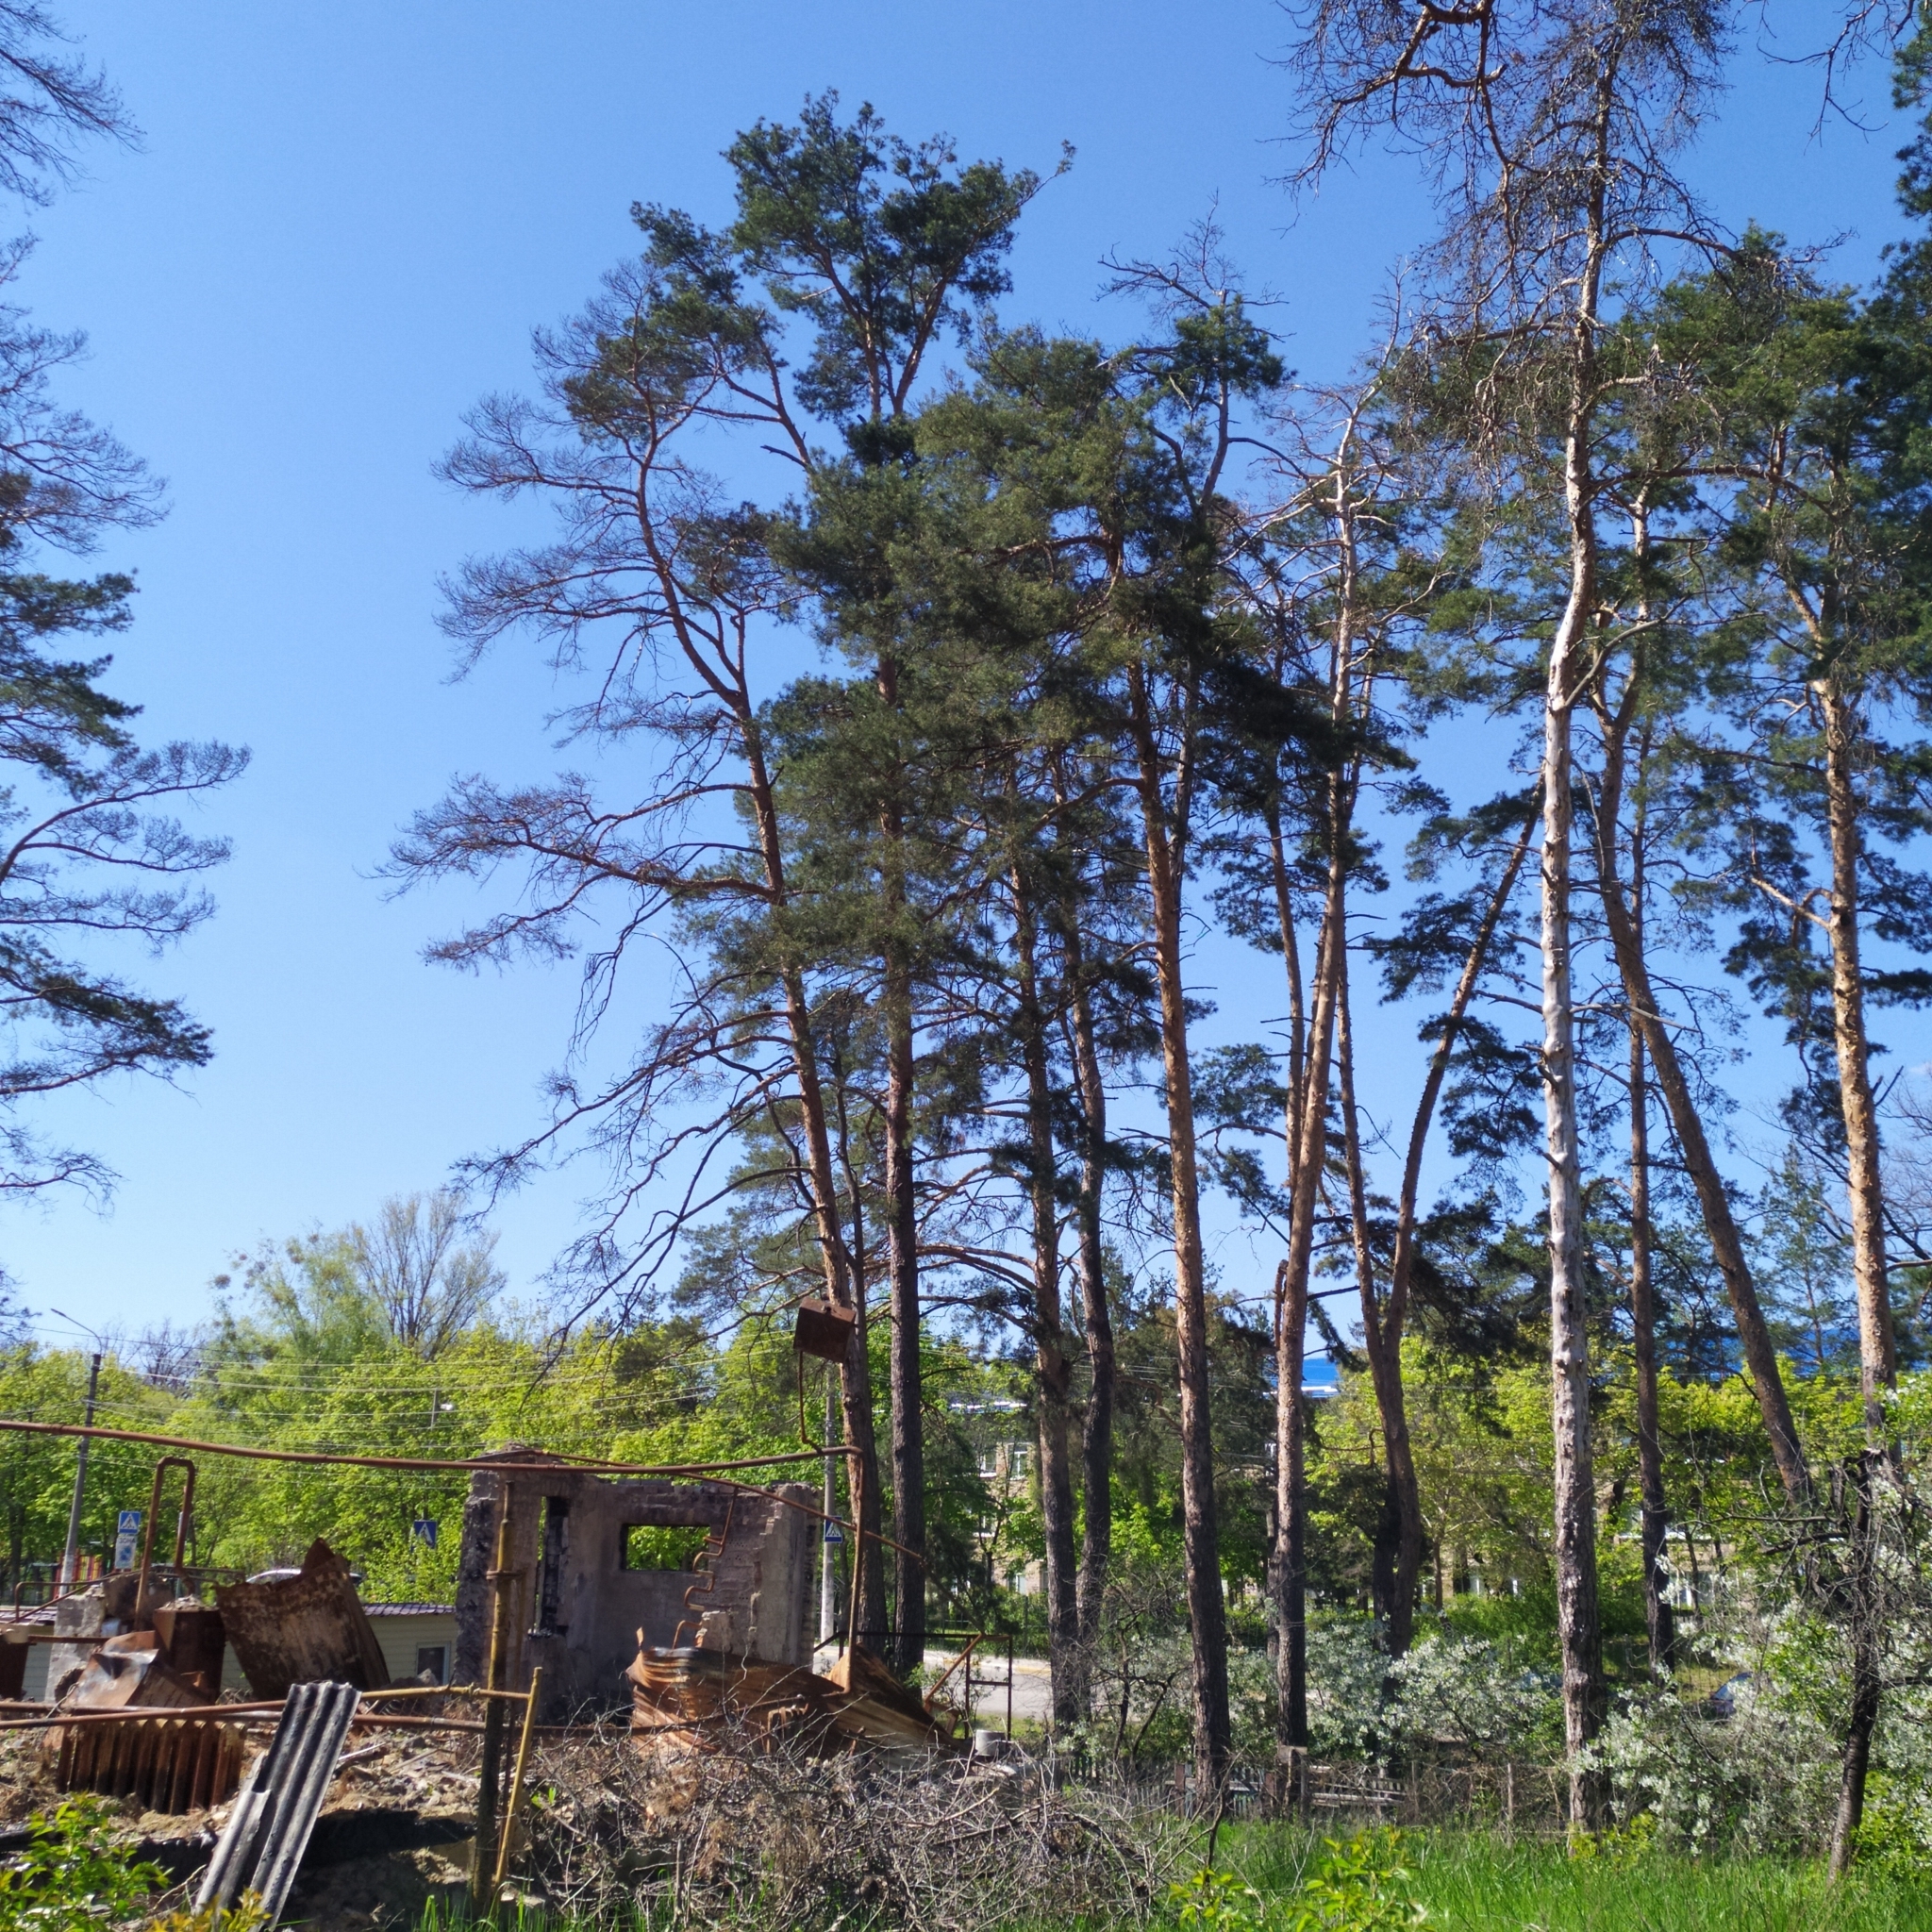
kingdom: Plantae
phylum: Tracheophyta
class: Pinopsida
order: Pinales
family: Pinaceae
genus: Pinus
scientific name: Pinus sylvestris
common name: Scots pine
